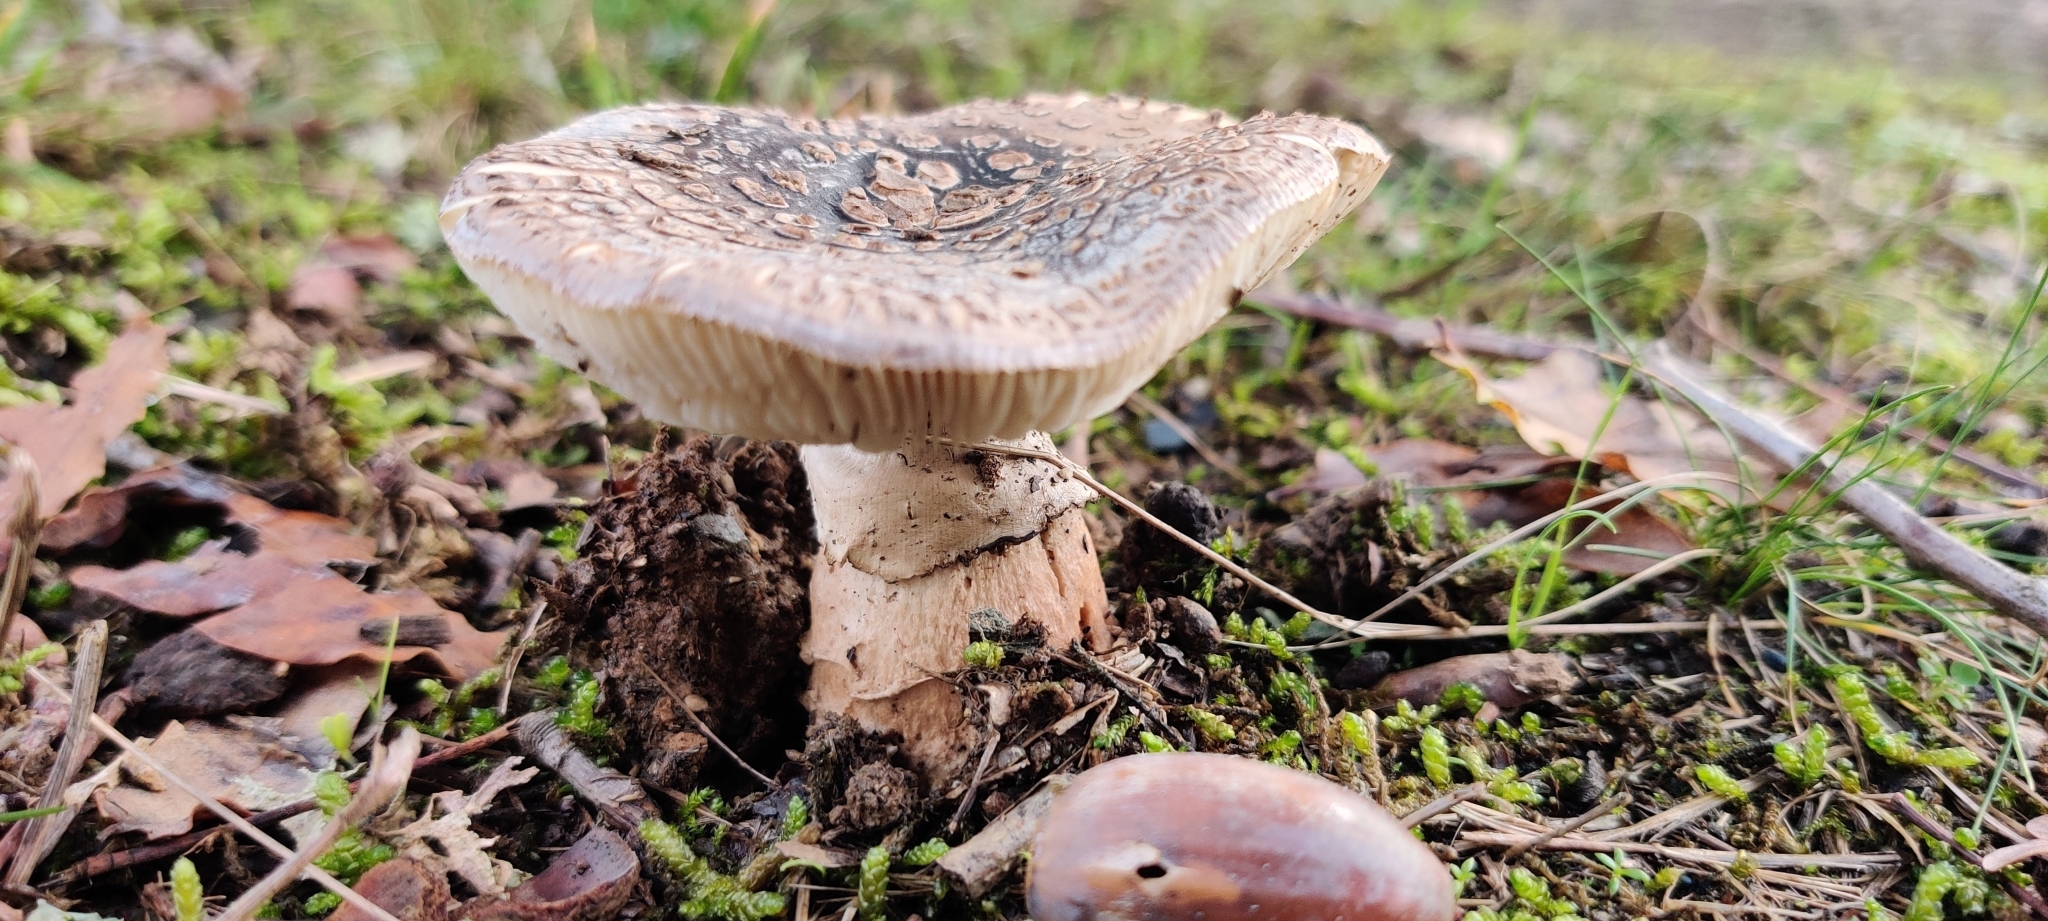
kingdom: Fungi
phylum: Basidiomycota
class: Agaricomycetes
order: Agaricales
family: Amanitaceae
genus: Amanita
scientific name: Amanita rubescens
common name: Blusher
